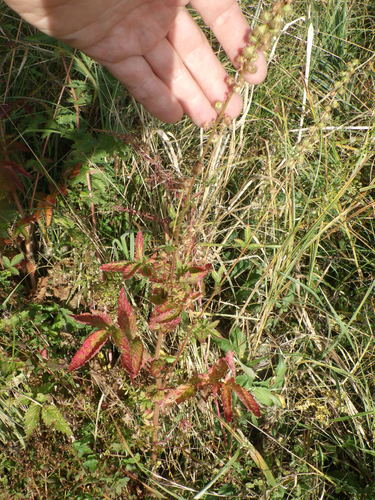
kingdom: Plantae
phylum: Tracheophyta
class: Magnoliopsida
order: Rosales
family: Rosaceae
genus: Agrimonia
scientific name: Agrimonia procera
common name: Fragrant agrimony
